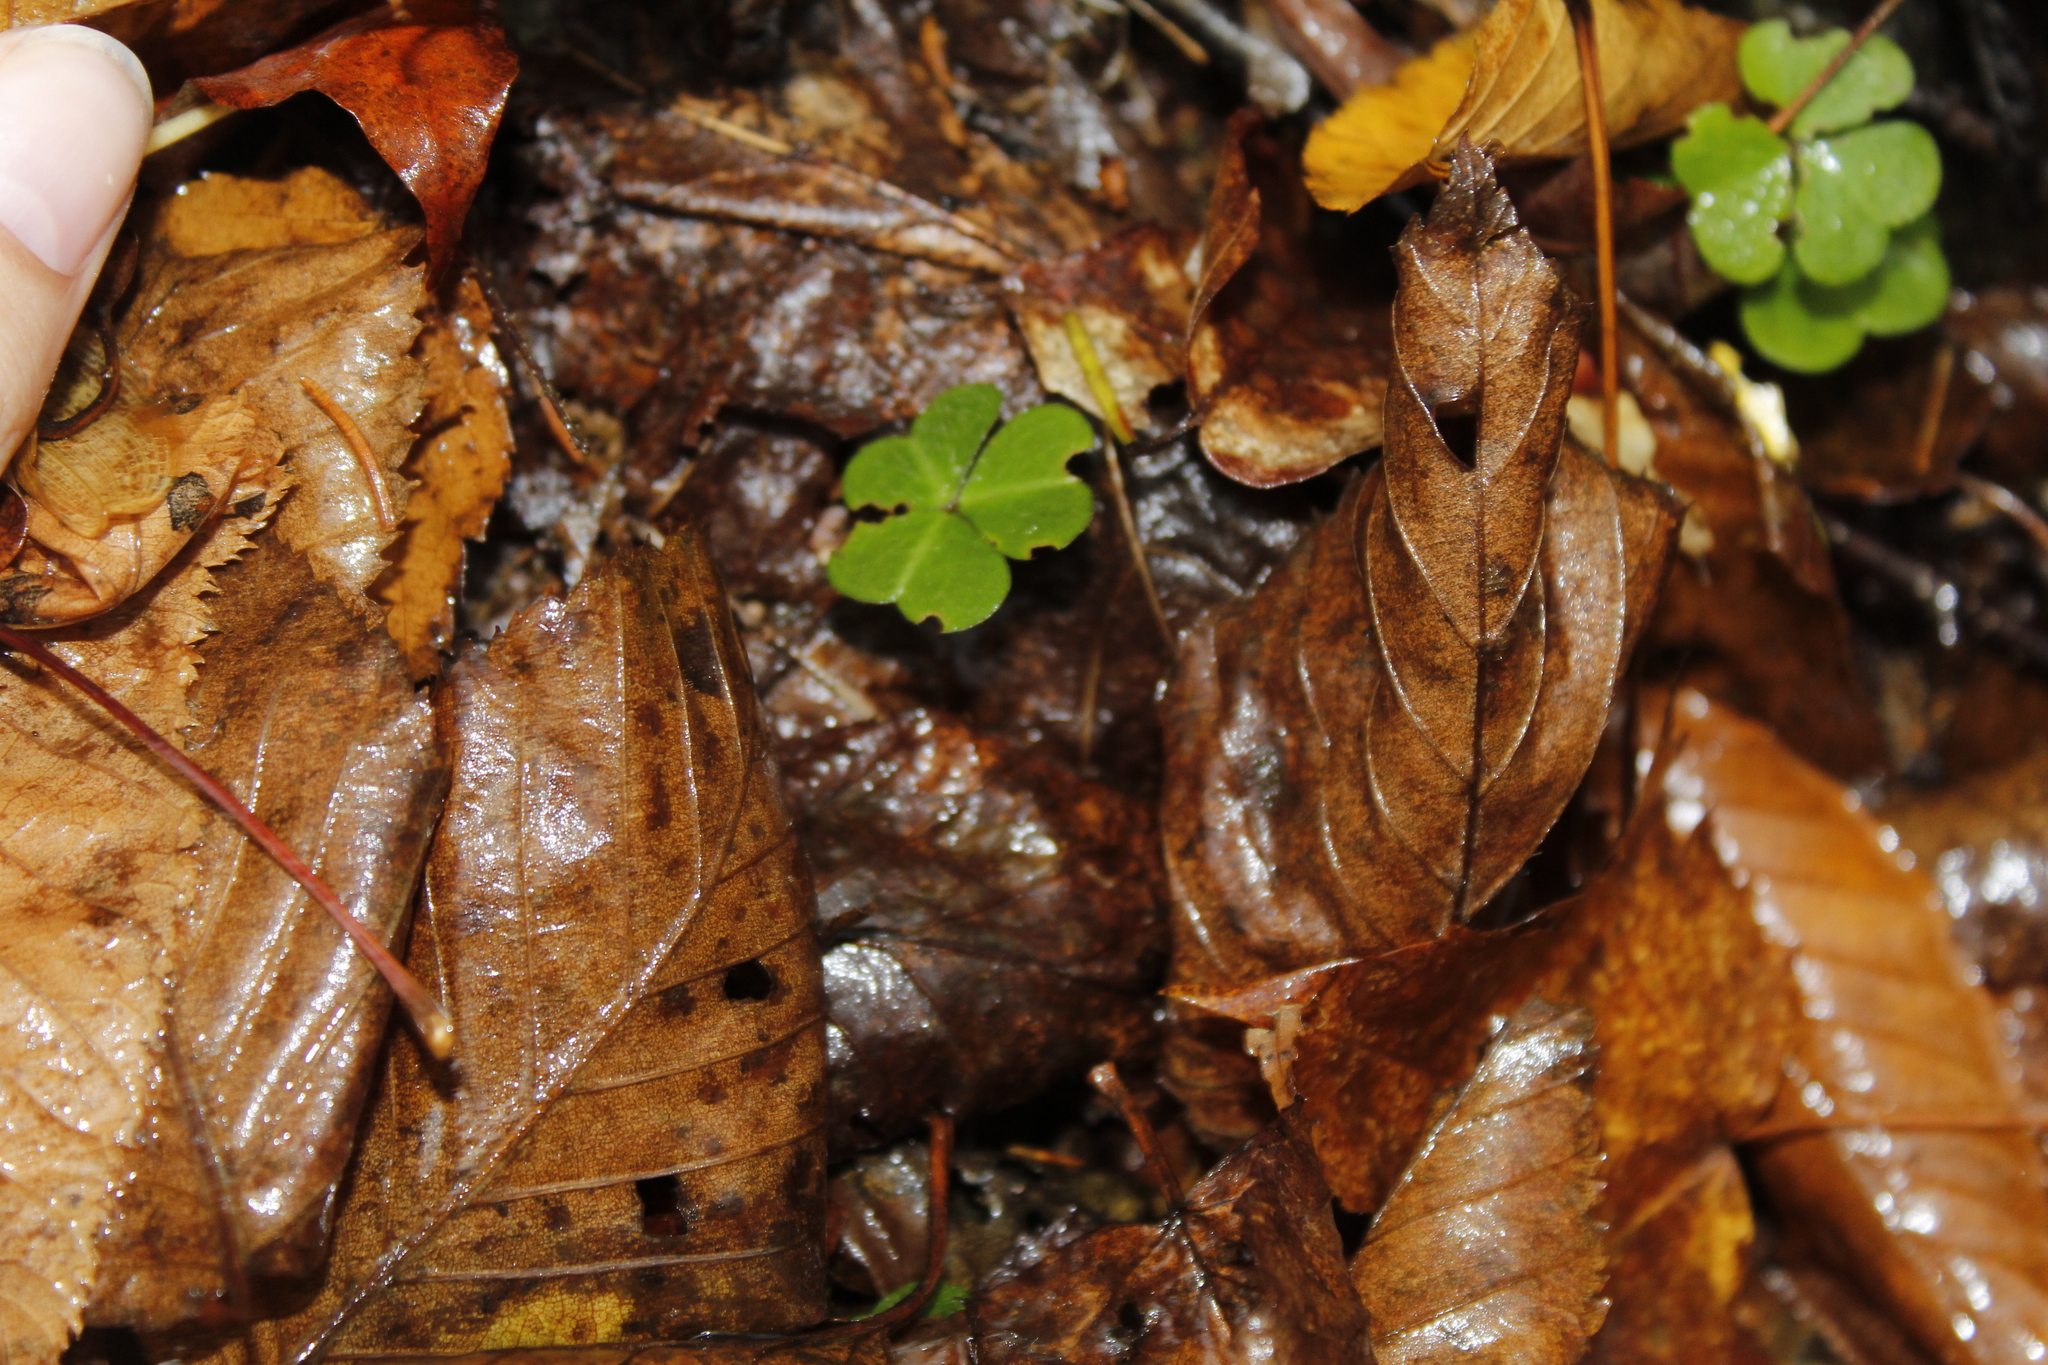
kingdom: Plantae
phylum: Tracheophyta
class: Magnoliopsida
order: Oxalidales
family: Oxalidaceae
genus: Oxalis
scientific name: Oxalis montana
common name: American wood-sorrel
